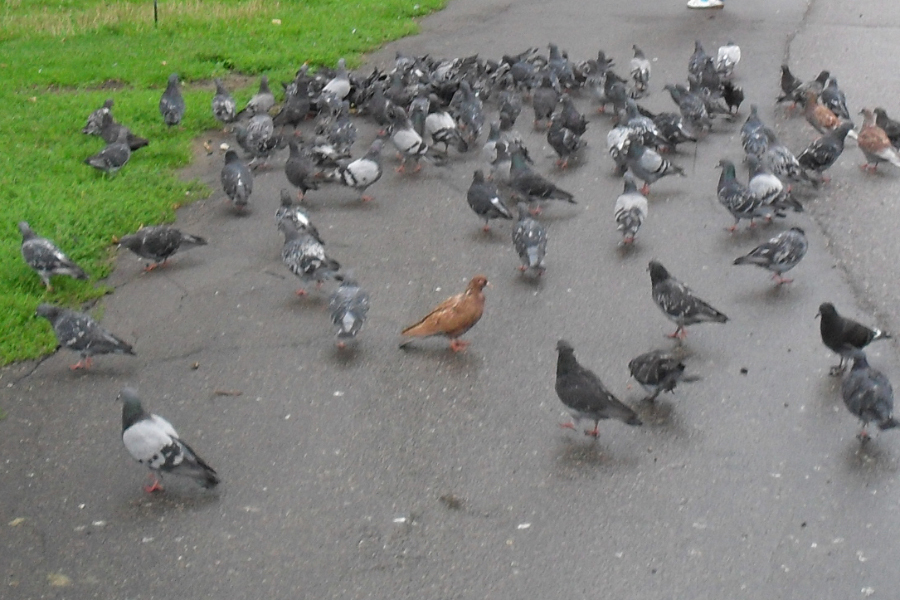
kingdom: Animalia
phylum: Chordata
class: Aves
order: Columbiformes
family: Columbidae
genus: Columba
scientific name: Columba livia
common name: Rock pigeon
